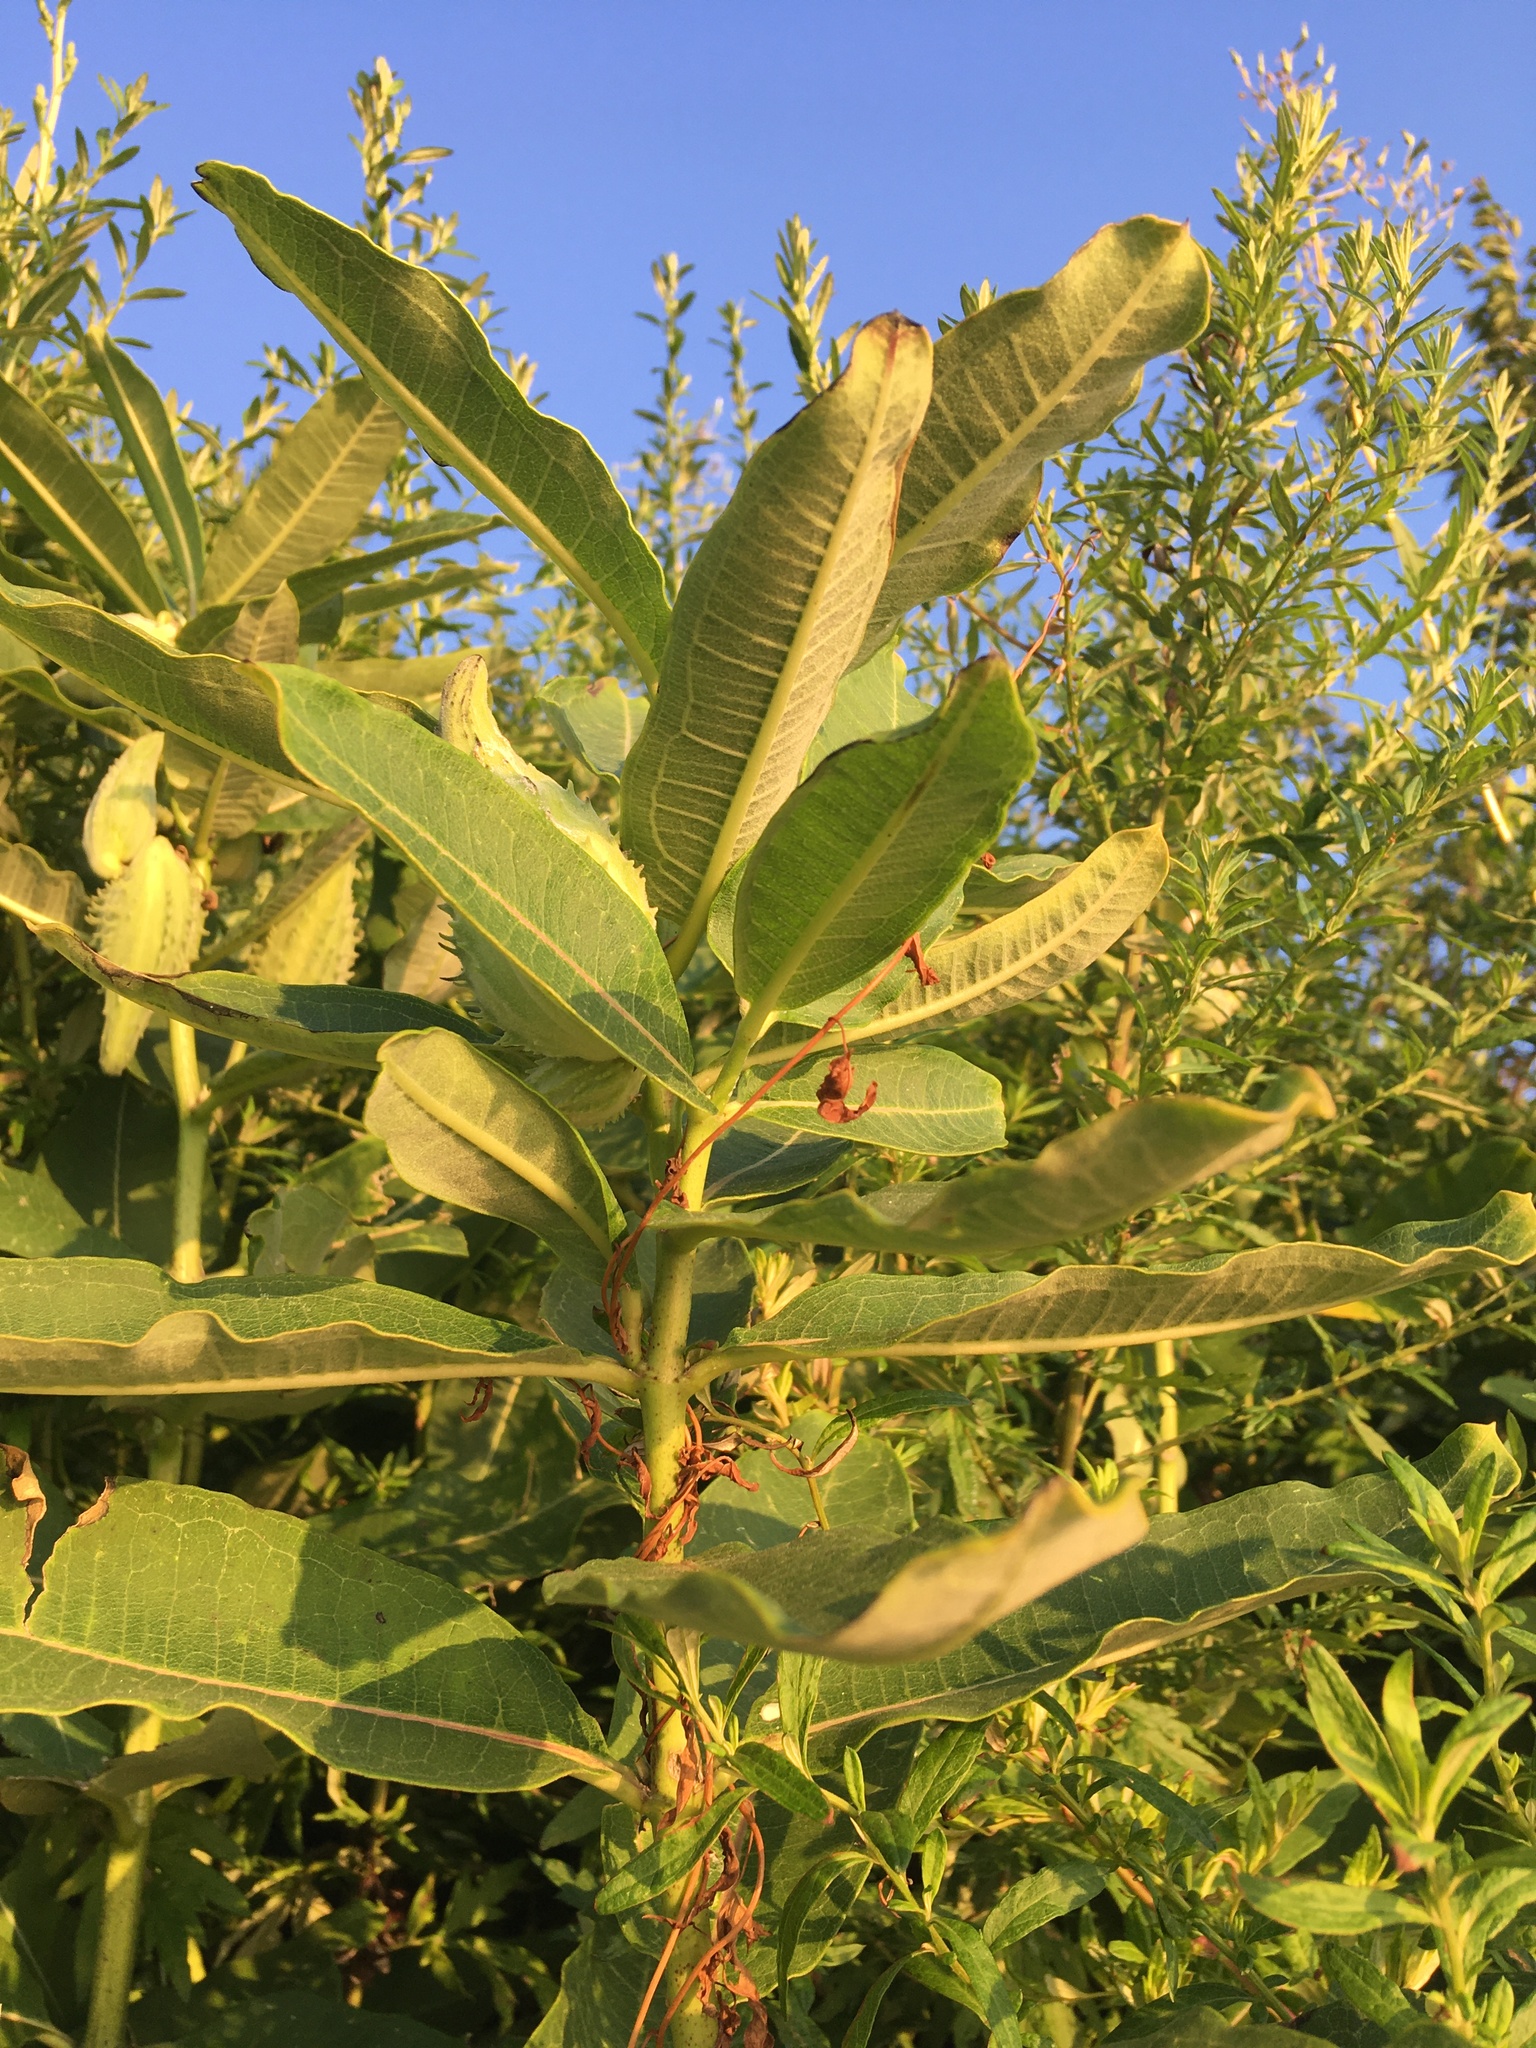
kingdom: Plantae
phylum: Tracheophyta
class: Magnoliopsida
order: Gentianales
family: Apocynaceae
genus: Asclepias
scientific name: Asclepias syriaca
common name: Common milkweed
